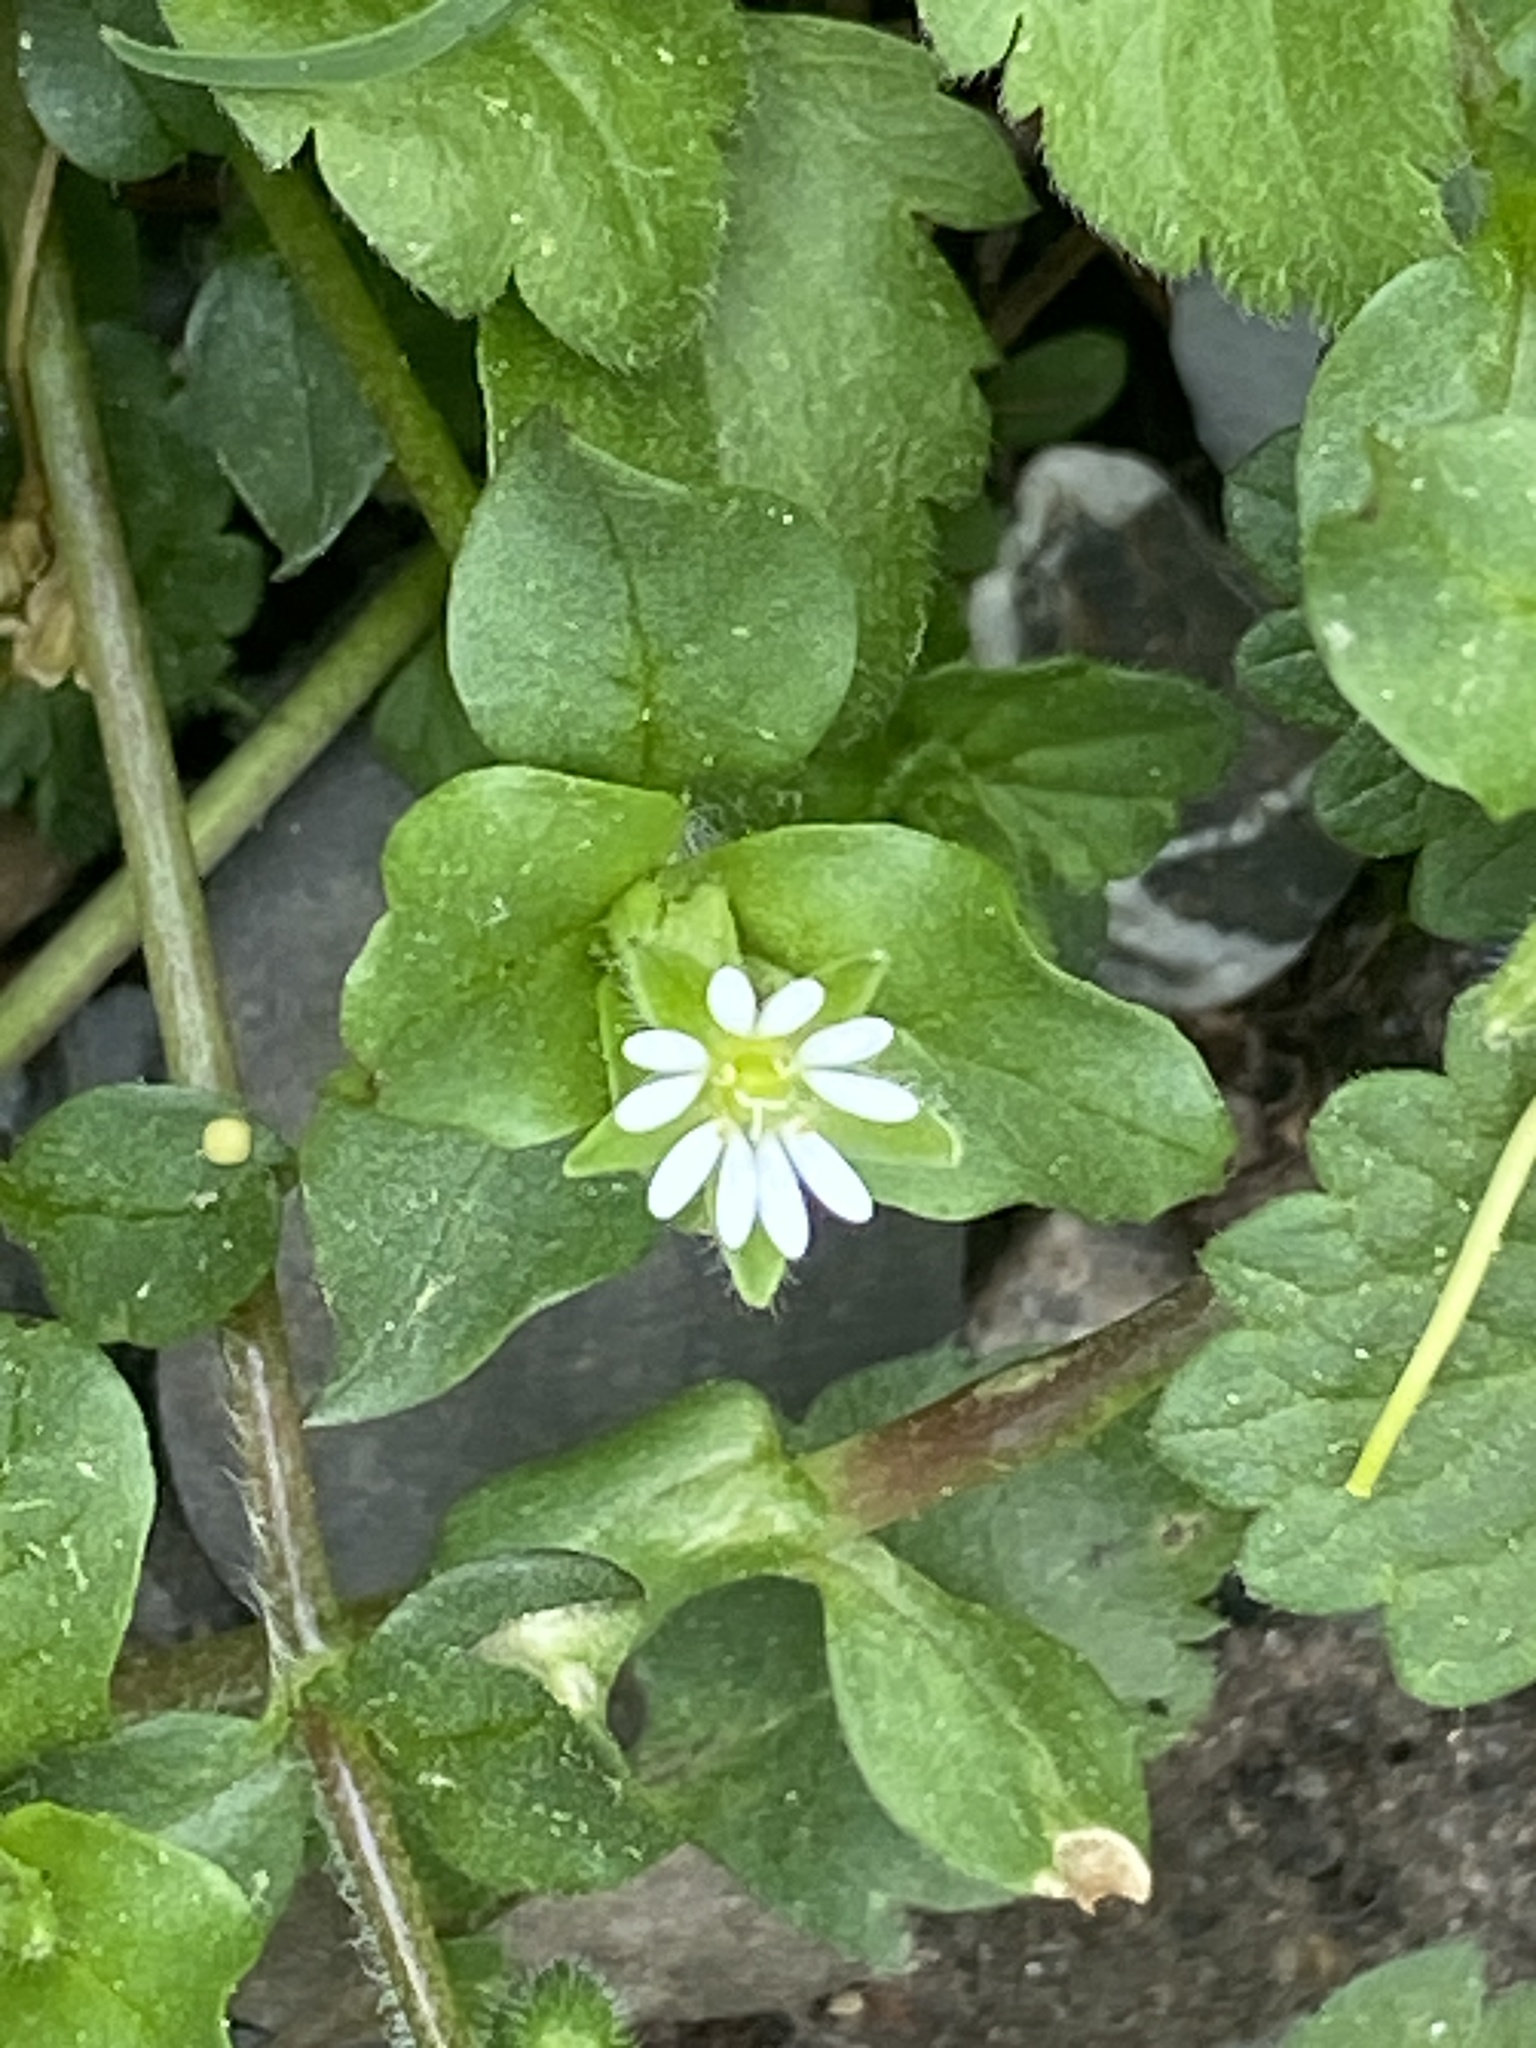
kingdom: Plantae
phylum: Tracheophyta
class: Magnoliopsida
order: Caryophyllales
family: Caryophyllaceae
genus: Stellaria
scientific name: Stellaria media
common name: Common chickweed
